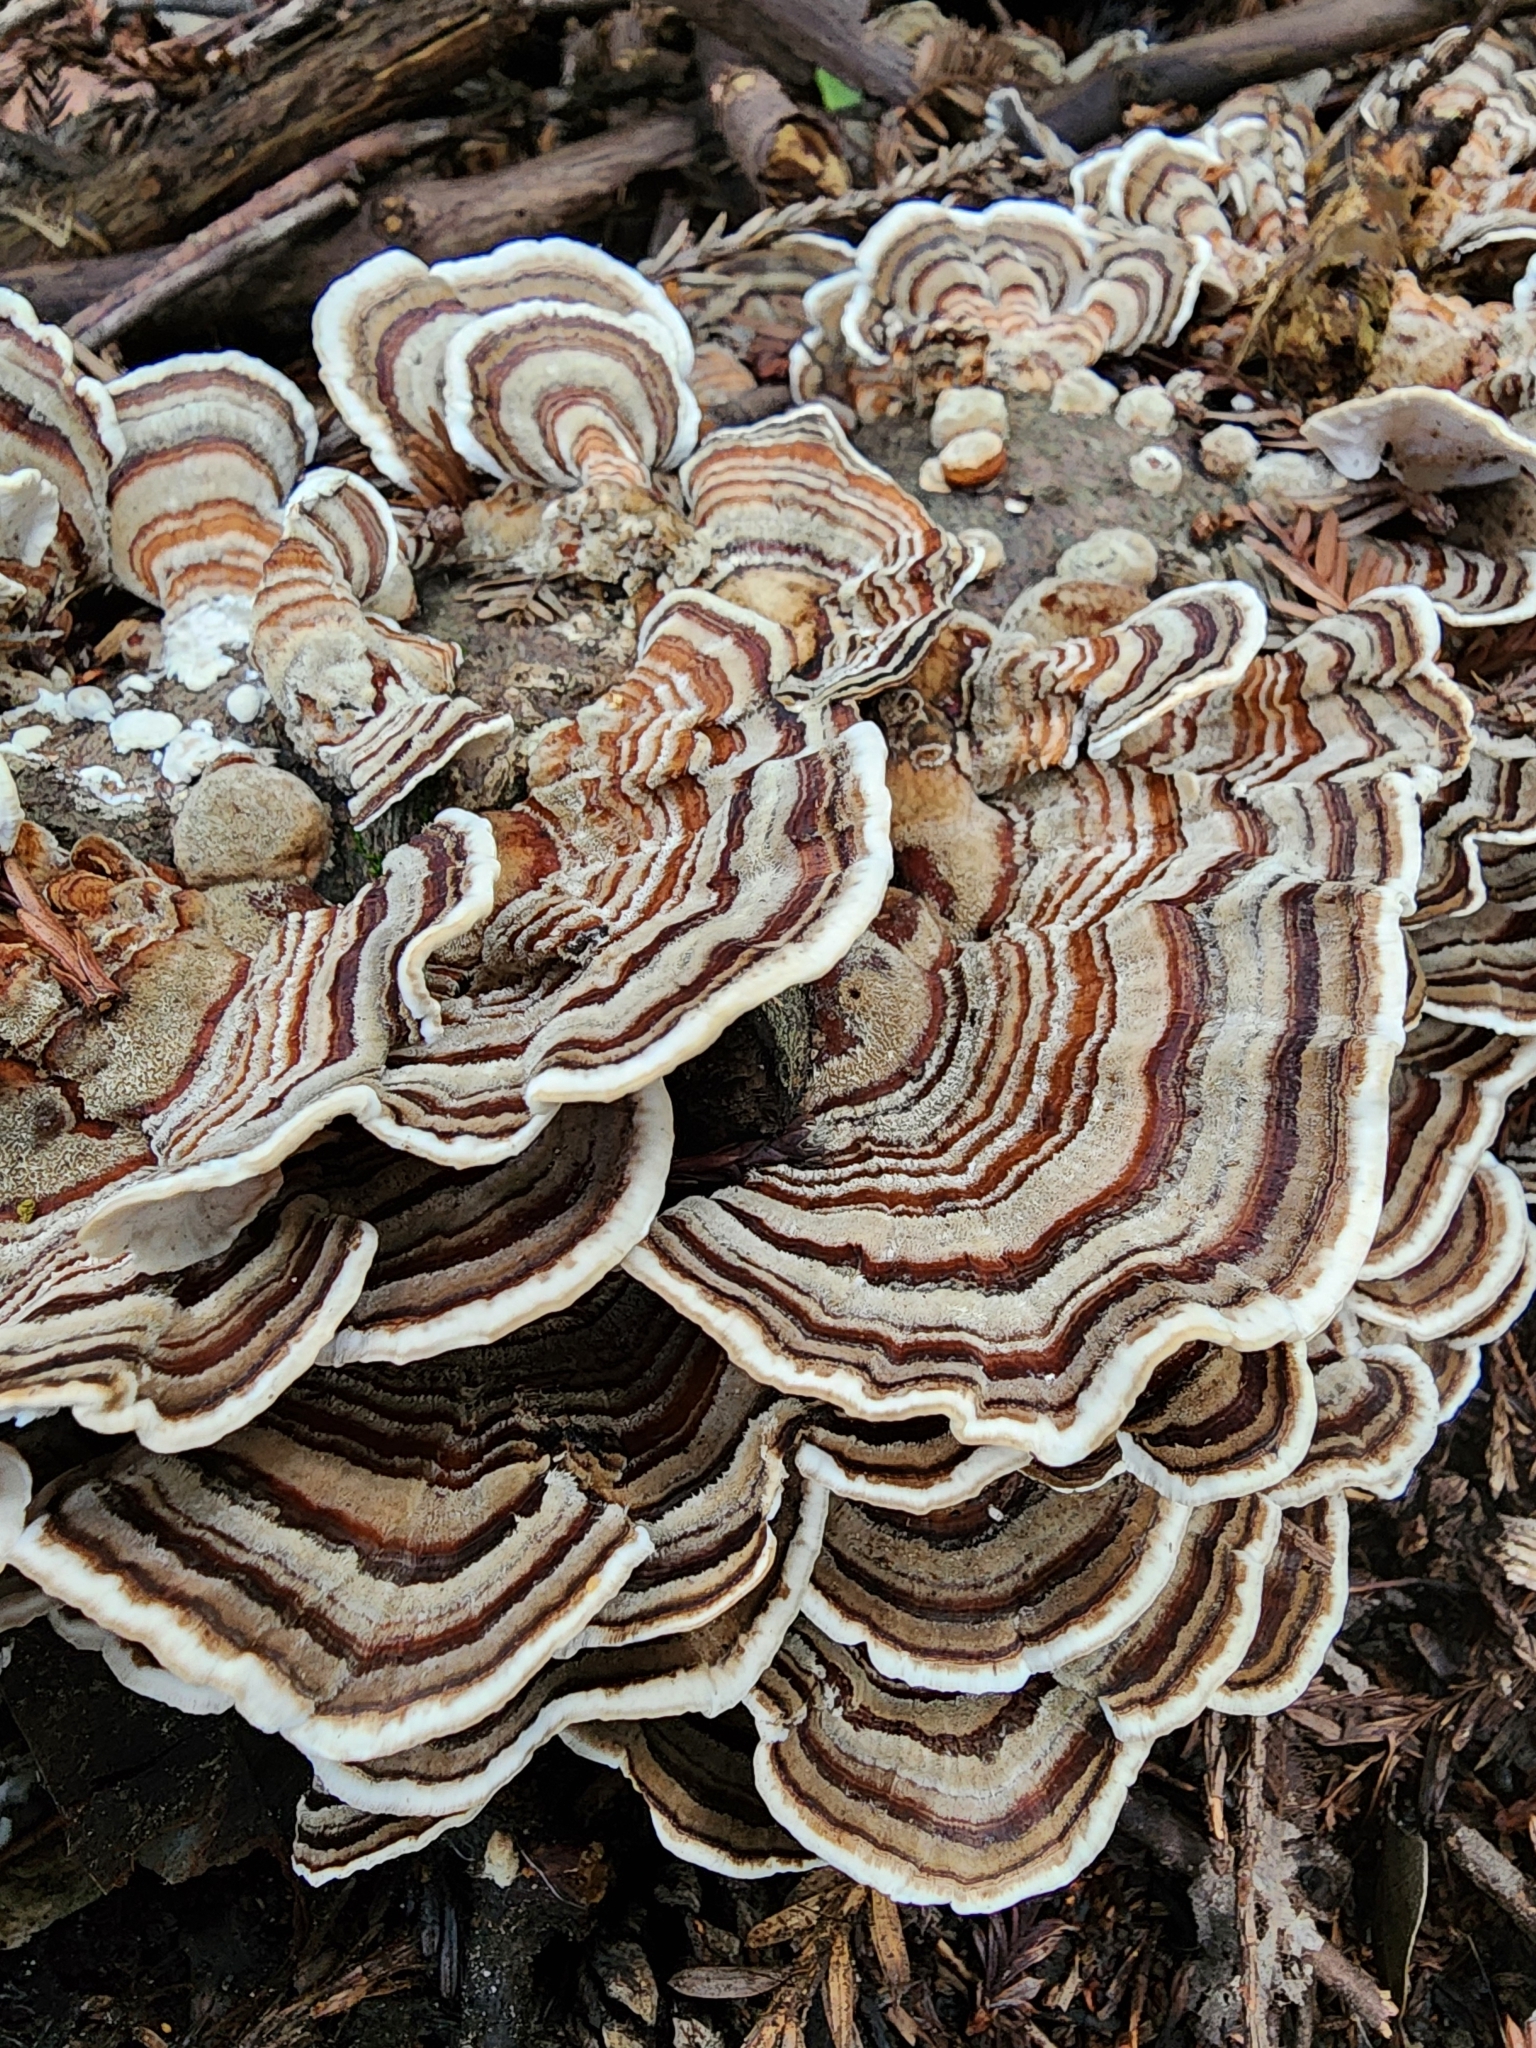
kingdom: Fungi
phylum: Basidiomycota
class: Agaricomycetes
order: Polyporales
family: Polyporaceae
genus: Trametes
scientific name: Trametes versicolor
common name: Turkeytail
